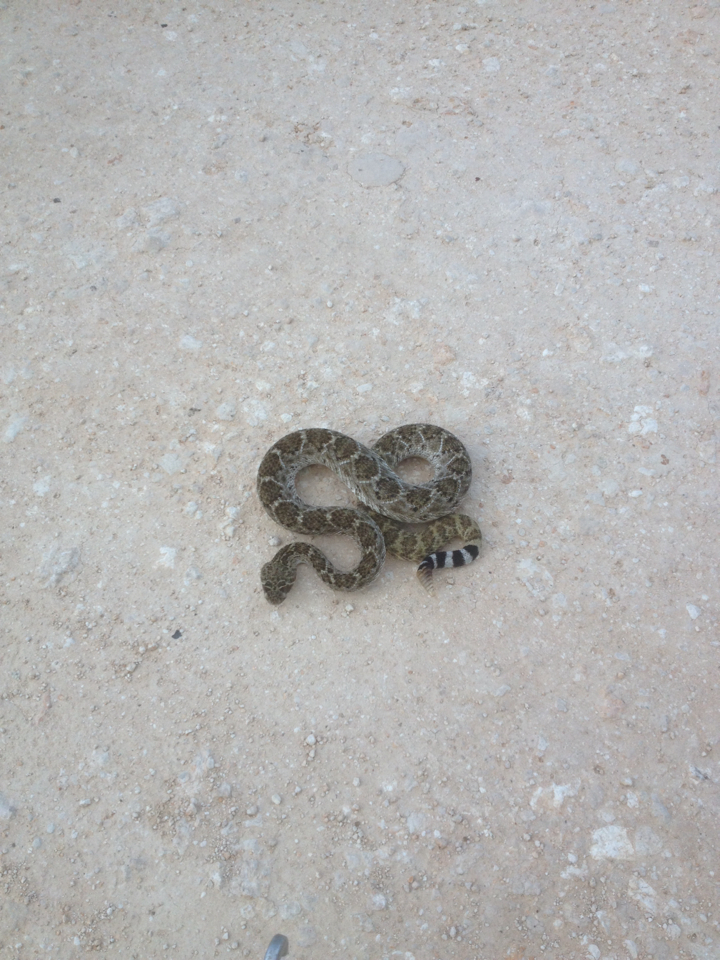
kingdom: Animalia
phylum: Chordata
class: Squamata
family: Viperidae
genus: Crotalus
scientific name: Crotalus atrox
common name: Western diamond-backed rattlesnake
